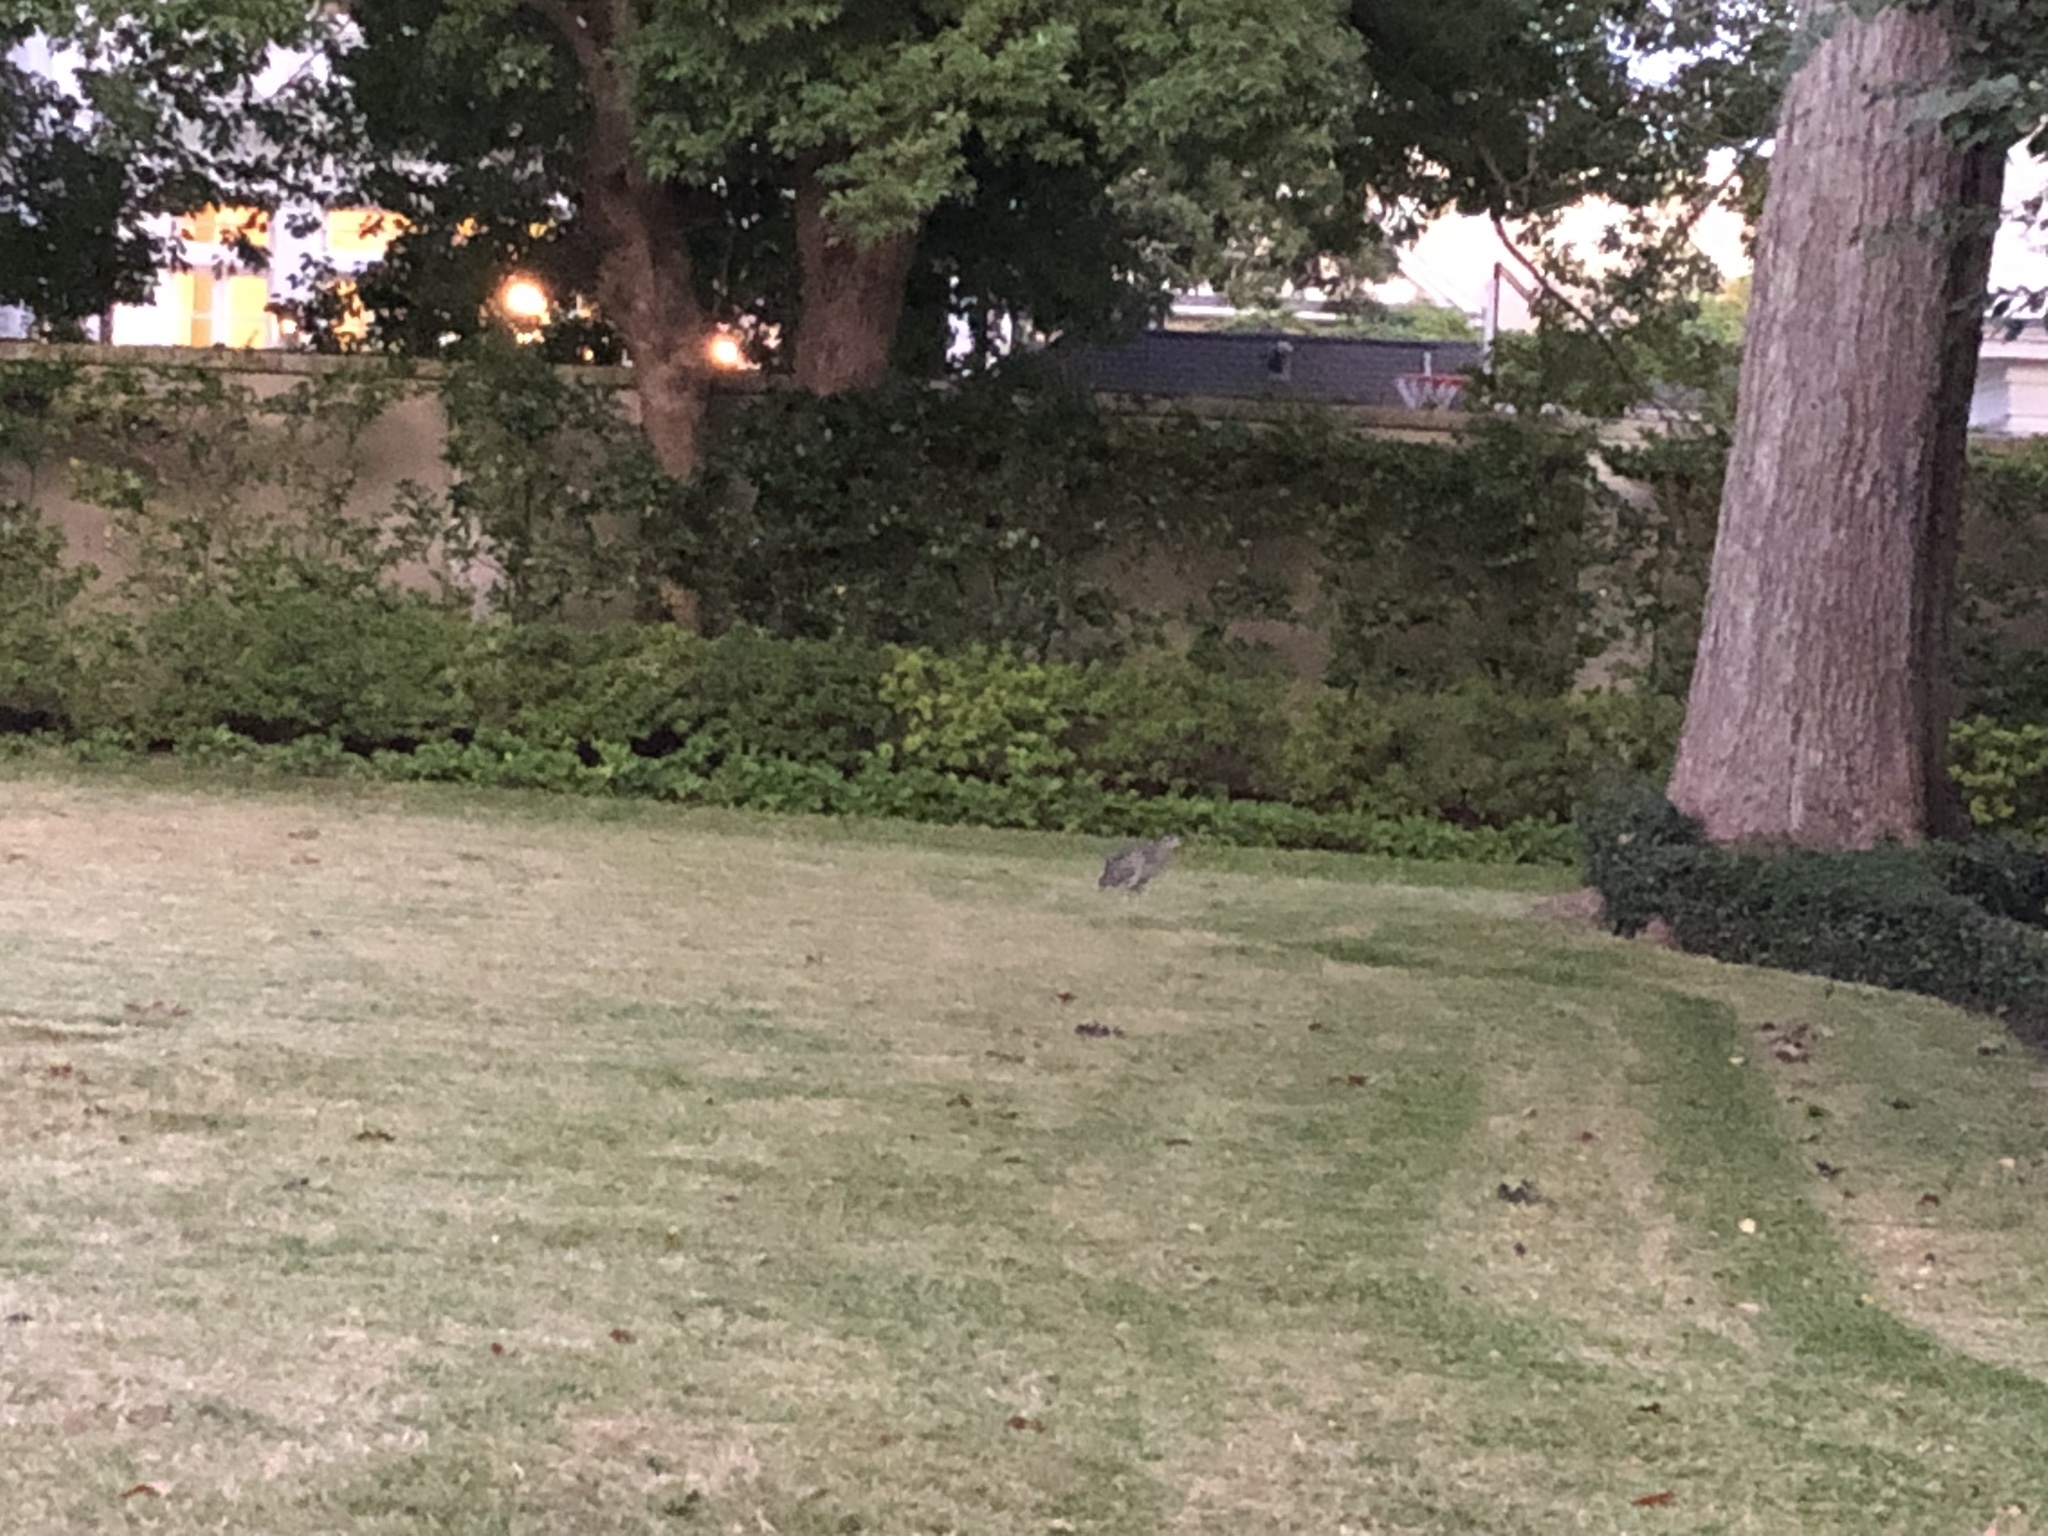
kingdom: Animalia
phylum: Chordata
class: Aves
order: Pelecaniformes
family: Ardeidae
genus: Nyctanassa
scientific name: Nyctanassa violacea
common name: Yellow-crowned night heron
